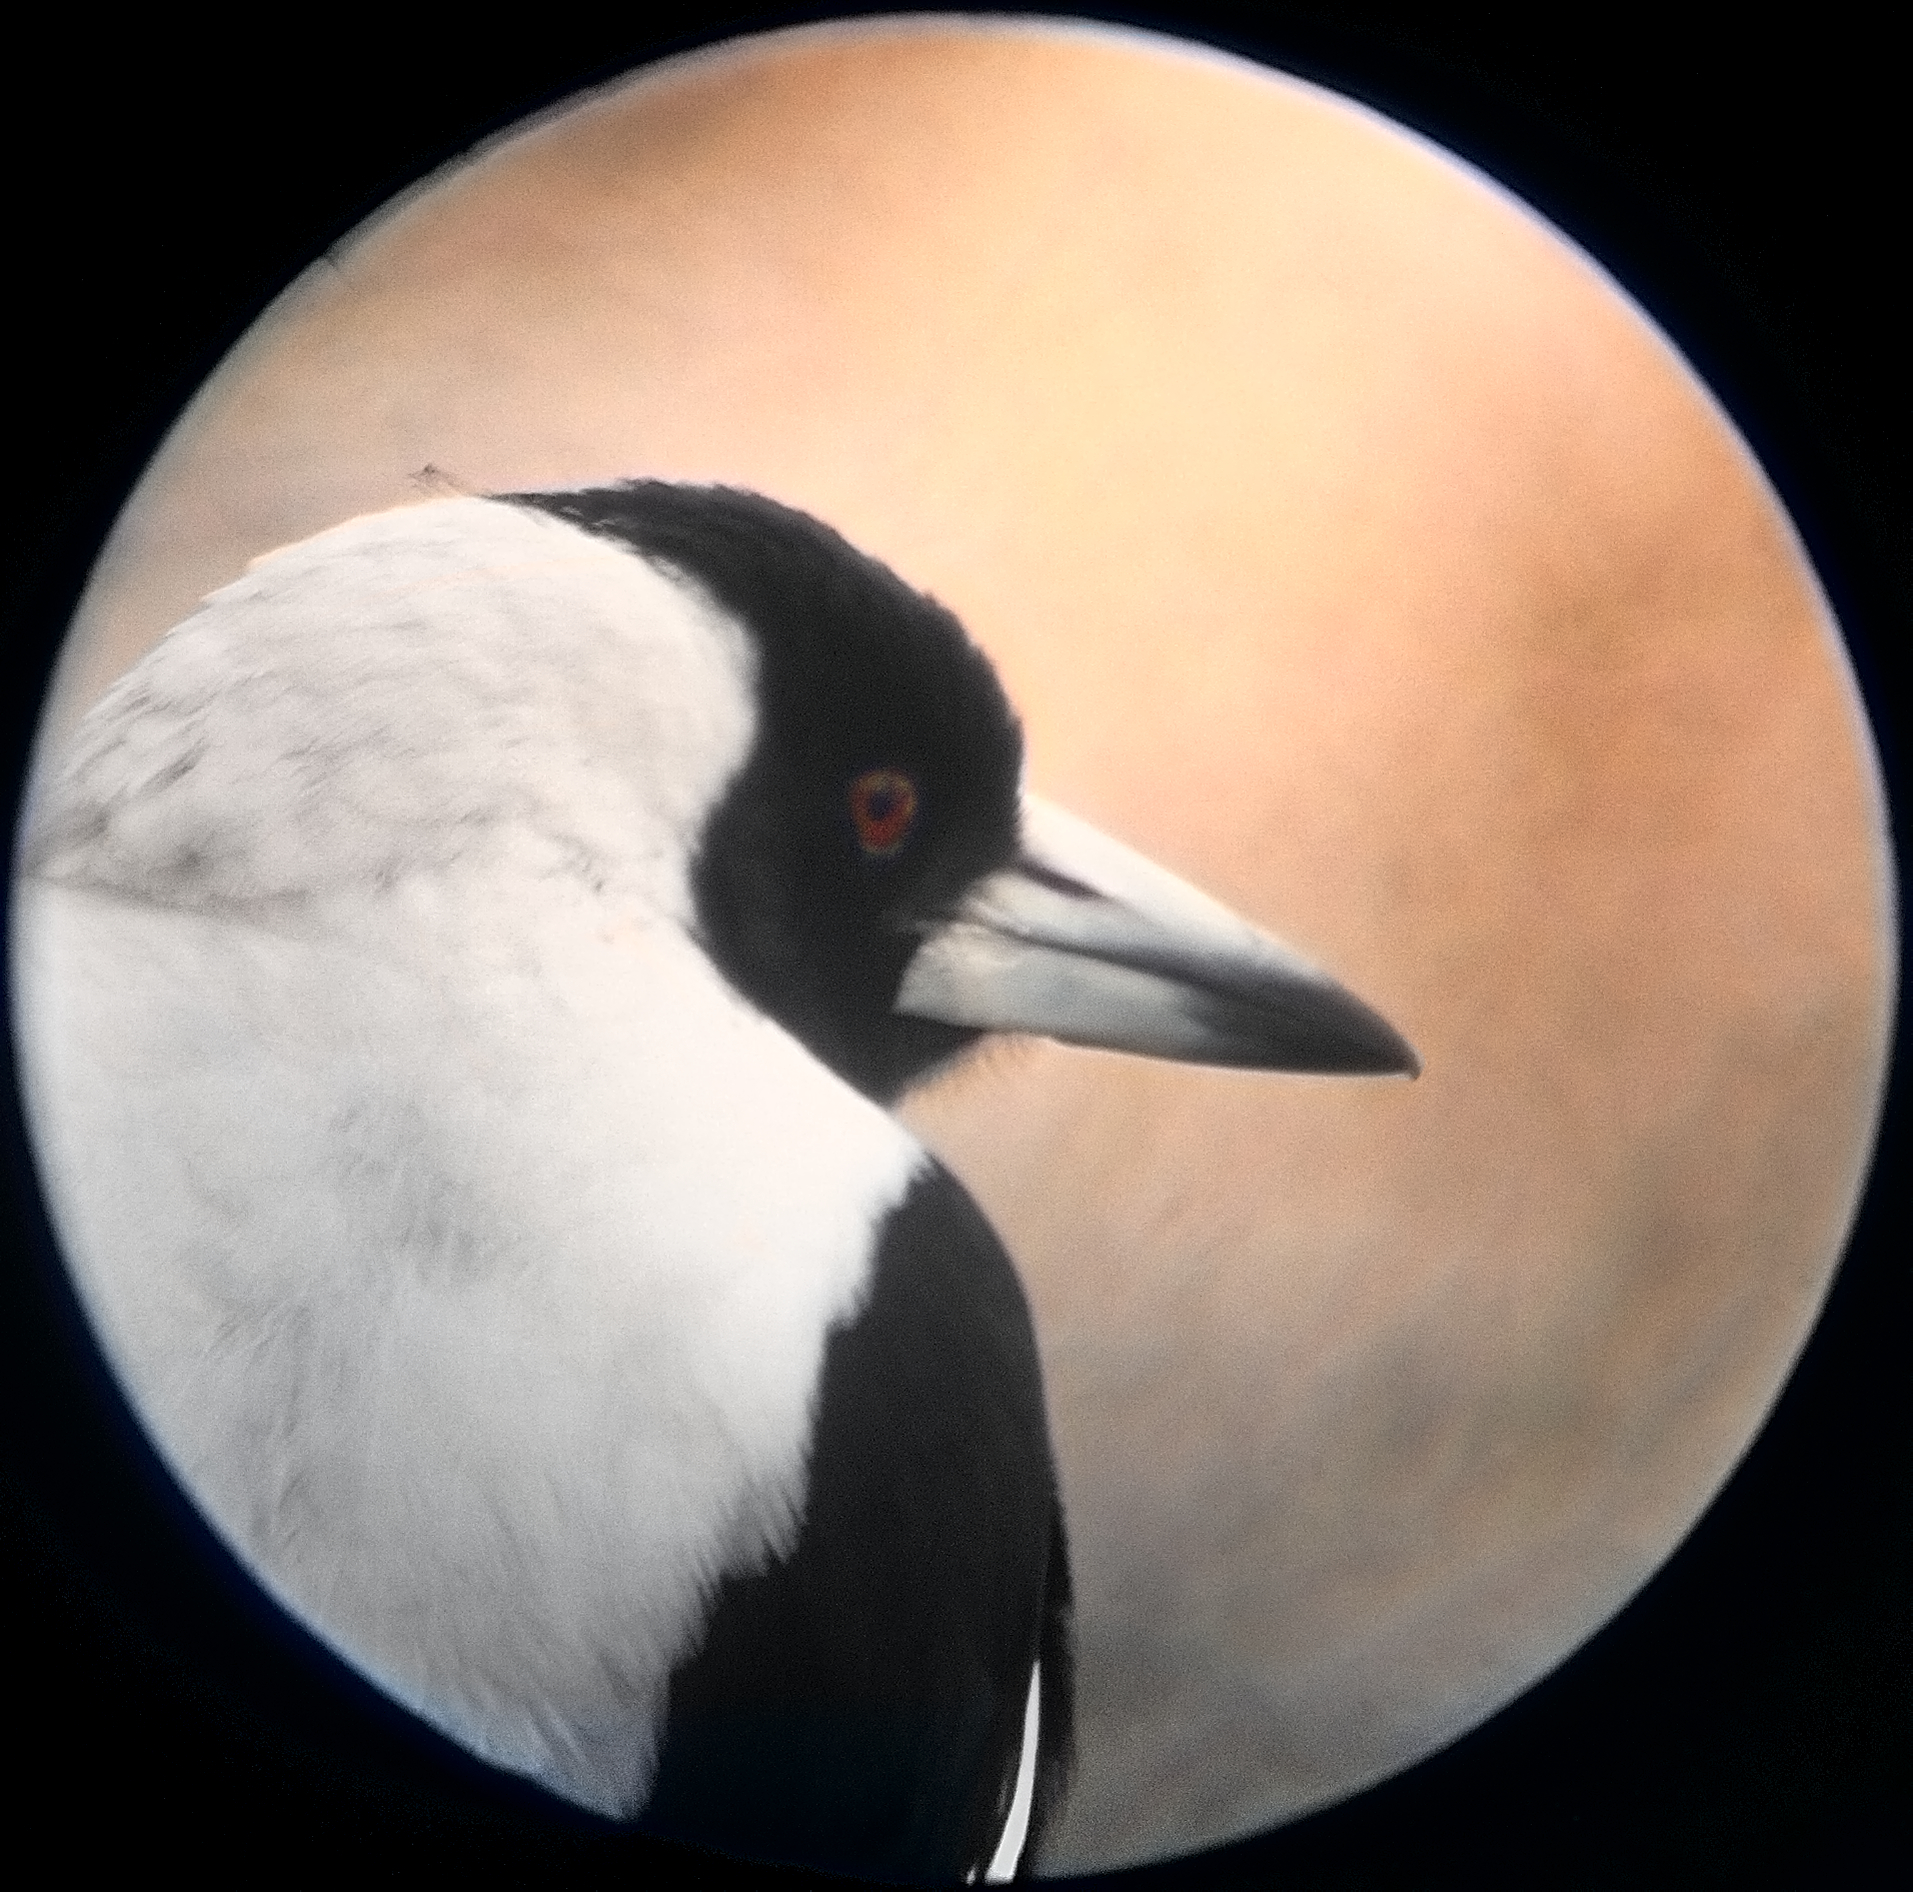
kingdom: Animalia
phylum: Chordata
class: Aves
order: Passeriformes
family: Cracticidae
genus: Gymnorhina
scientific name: Gymnorhina tibicen
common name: Australian magpie
